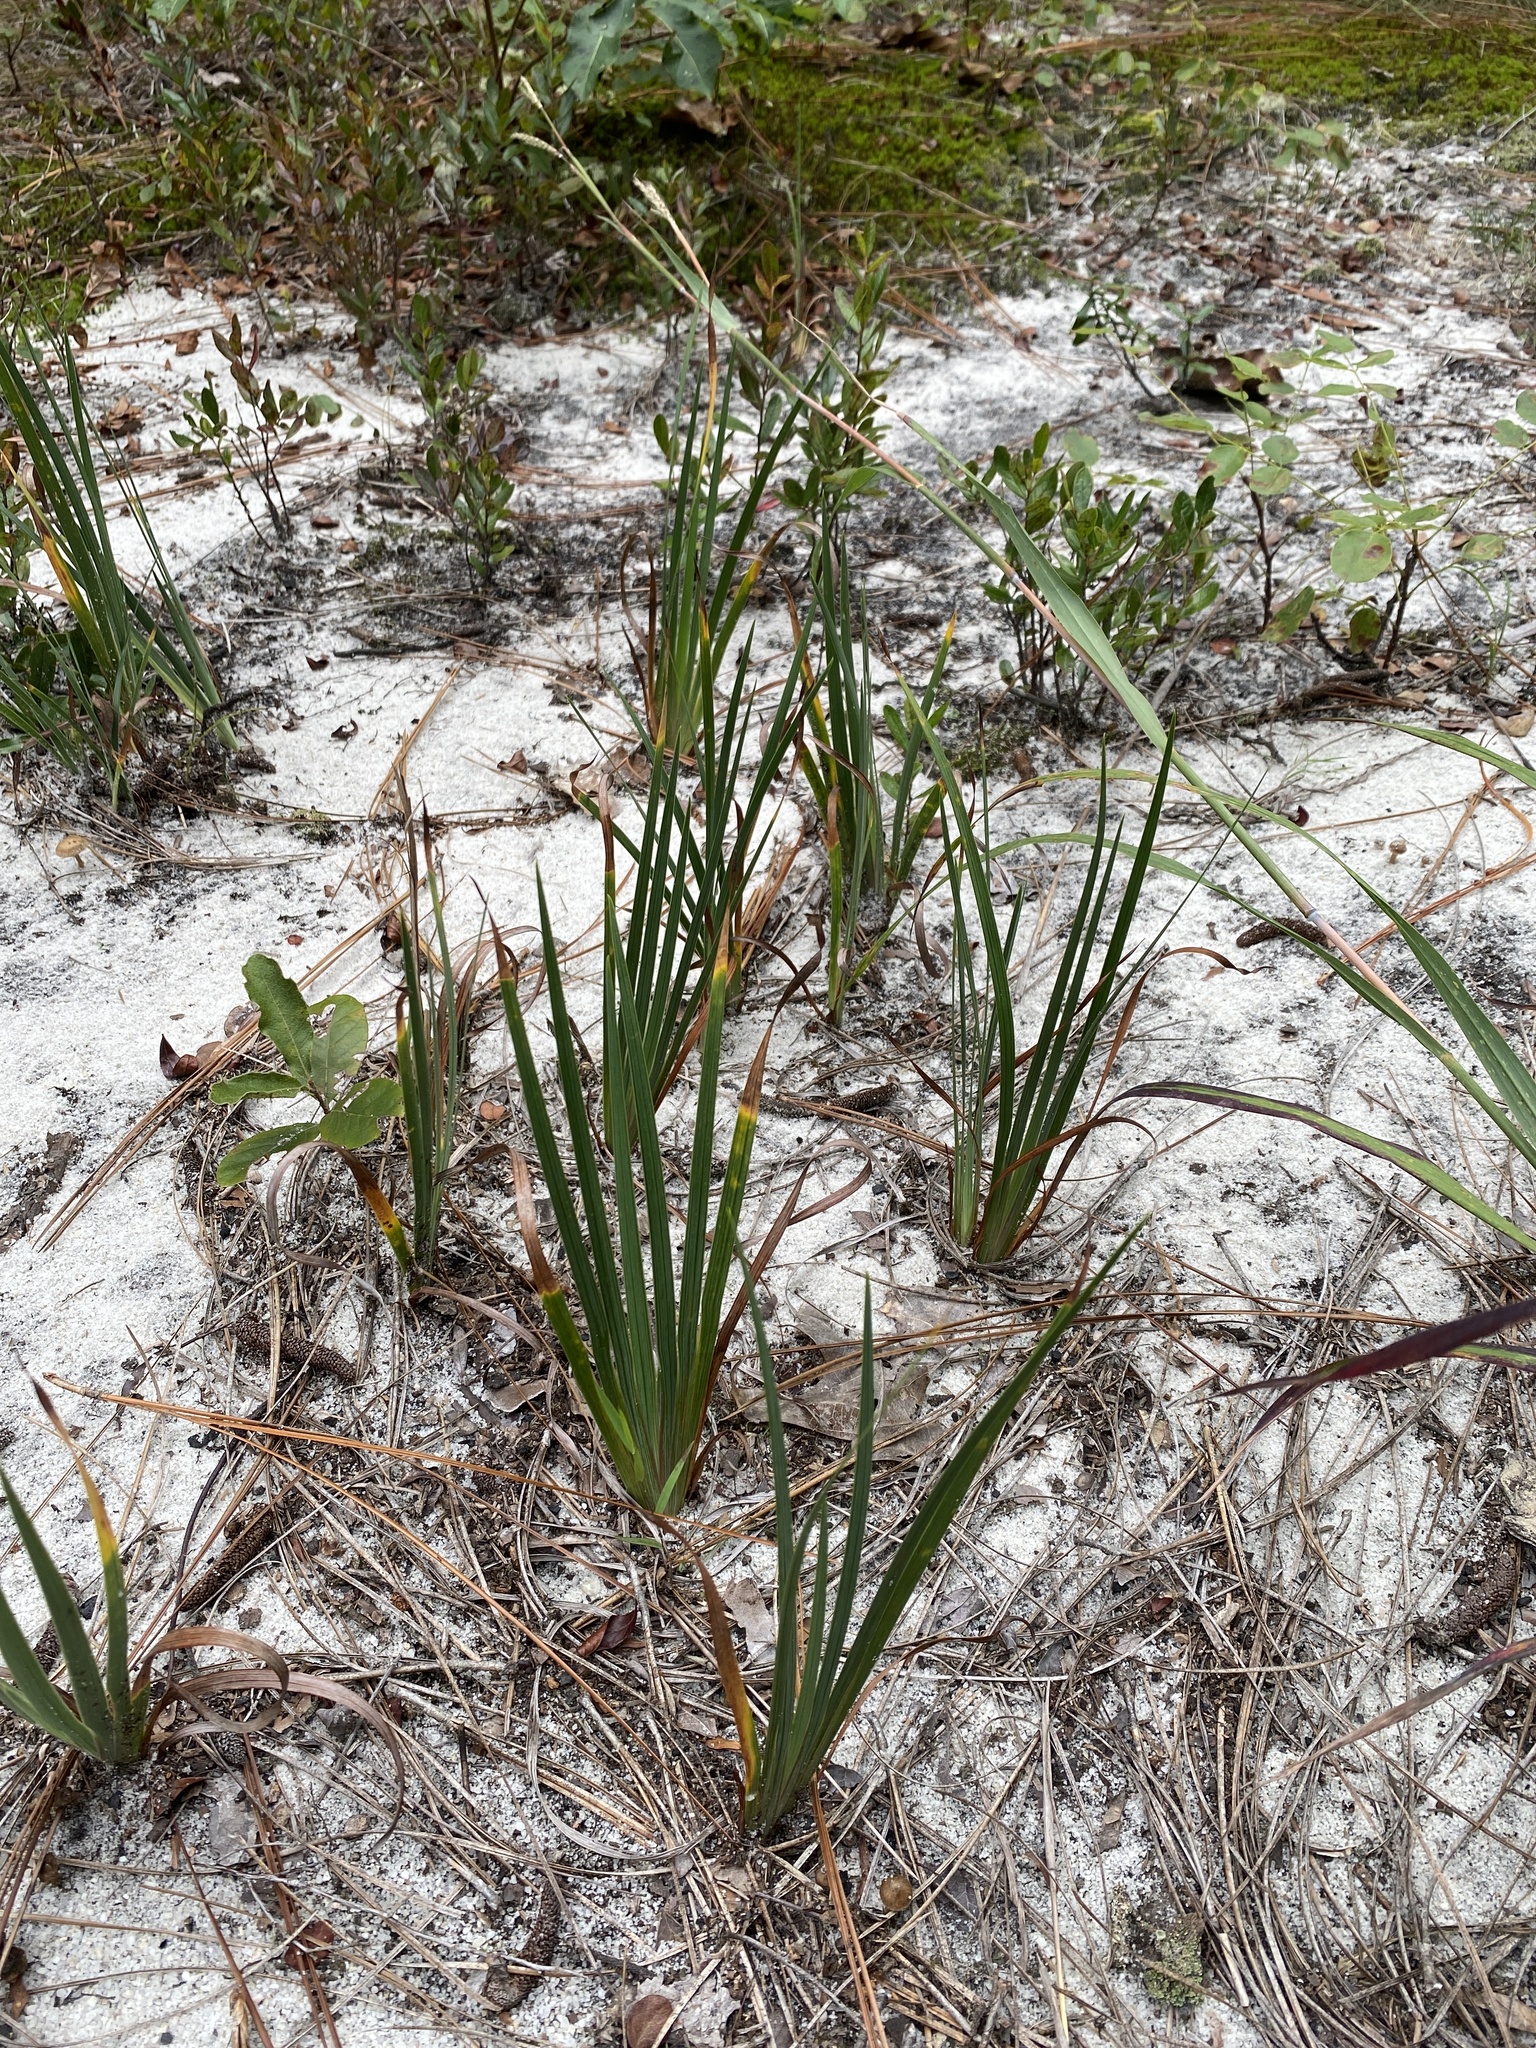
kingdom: Plantae
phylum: Tracheophyta
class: Liliopsida
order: Asparagales
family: Iridaceae
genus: Iris
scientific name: Iris verna
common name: Dwarf iris
